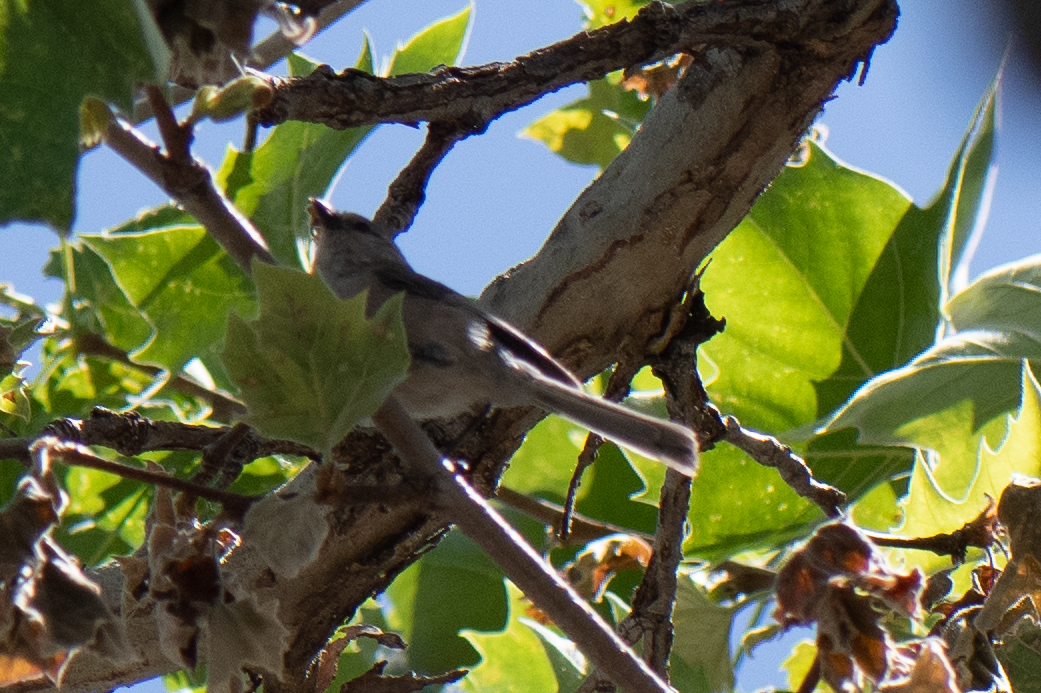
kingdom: Animalia
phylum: Chordata
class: Aves
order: Passeriformes
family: Aegithalidae
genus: Psaltriparus
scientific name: Psaltriparus minimus
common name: American bushtit
